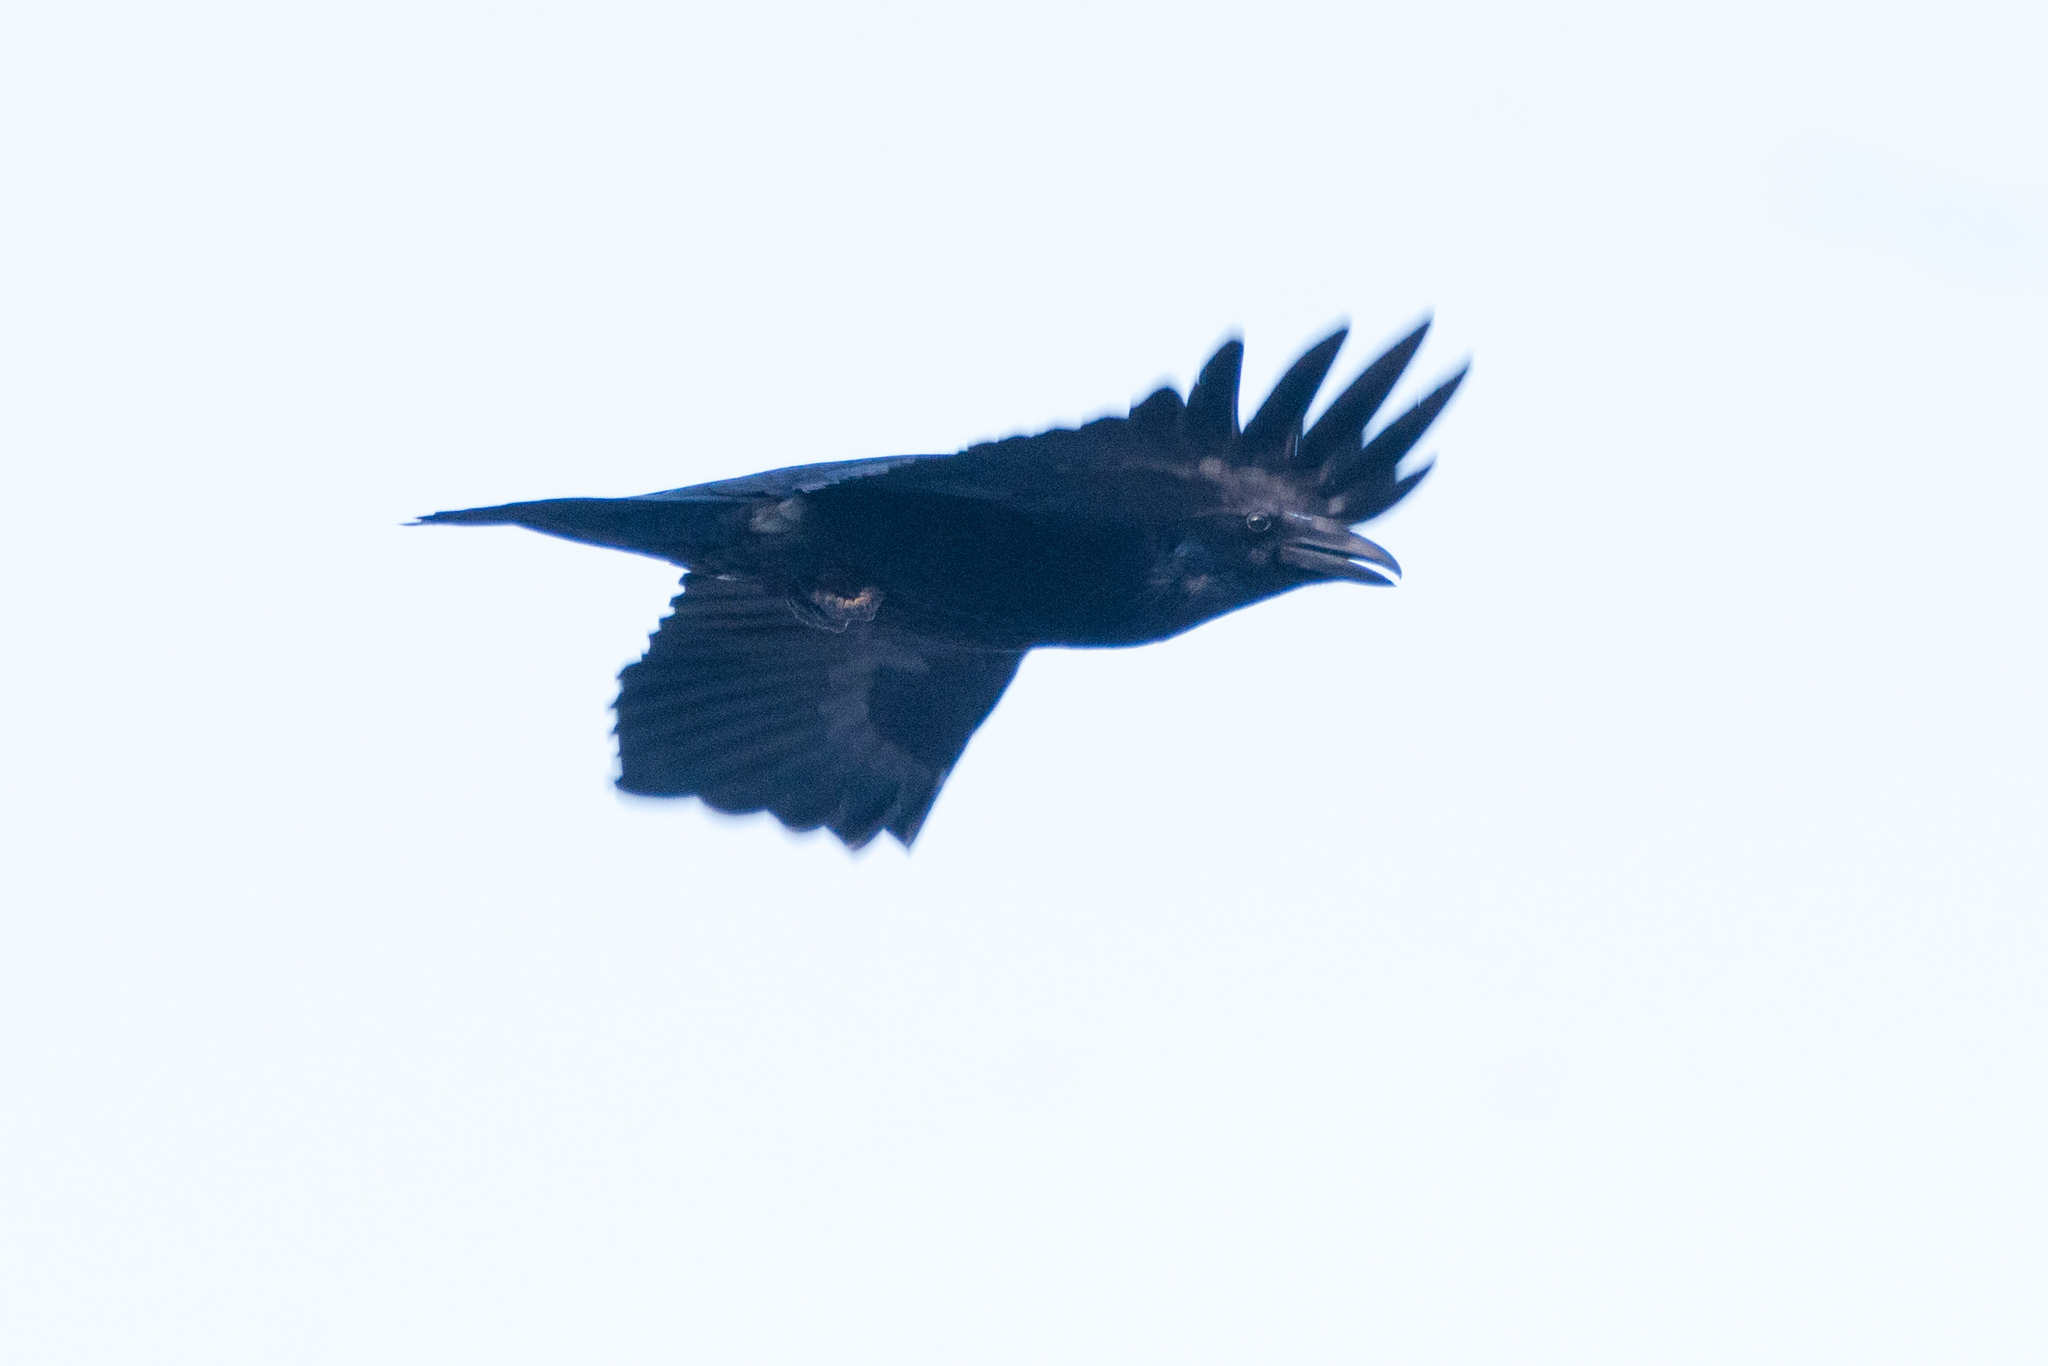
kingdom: Animalia
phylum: Chordata
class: Aves
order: Passeriformes
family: Corvidae
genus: Corvus
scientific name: Corvus corax
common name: Common raven
